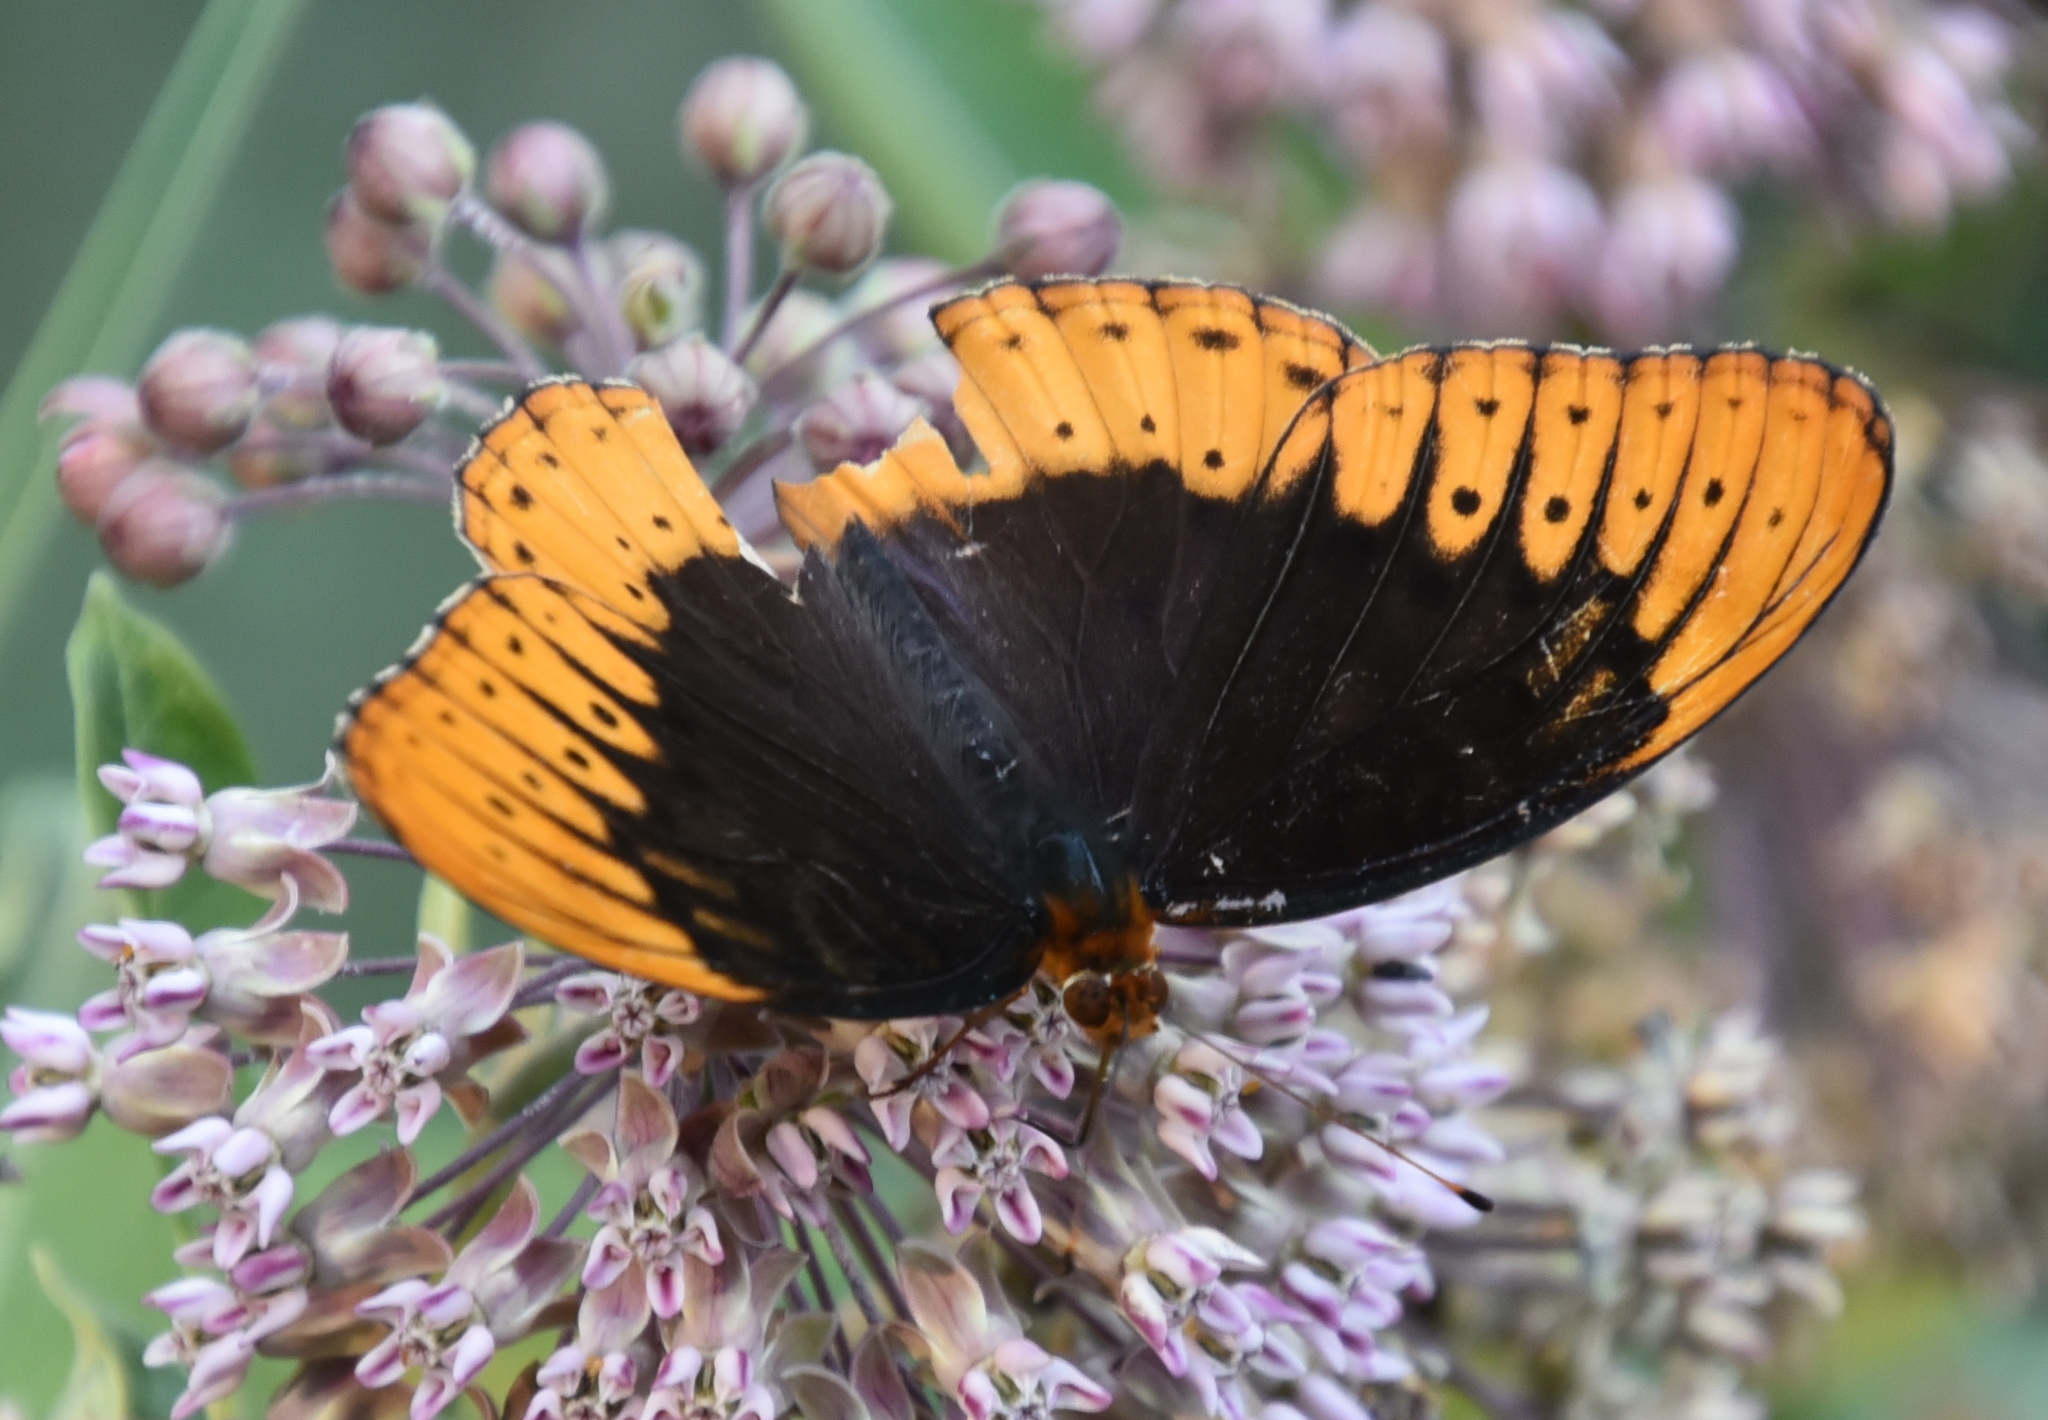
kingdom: Animalia
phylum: Arthropoda
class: Insecta
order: Lepidoptera
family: Nymphalidae
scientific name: Nymphalidae
